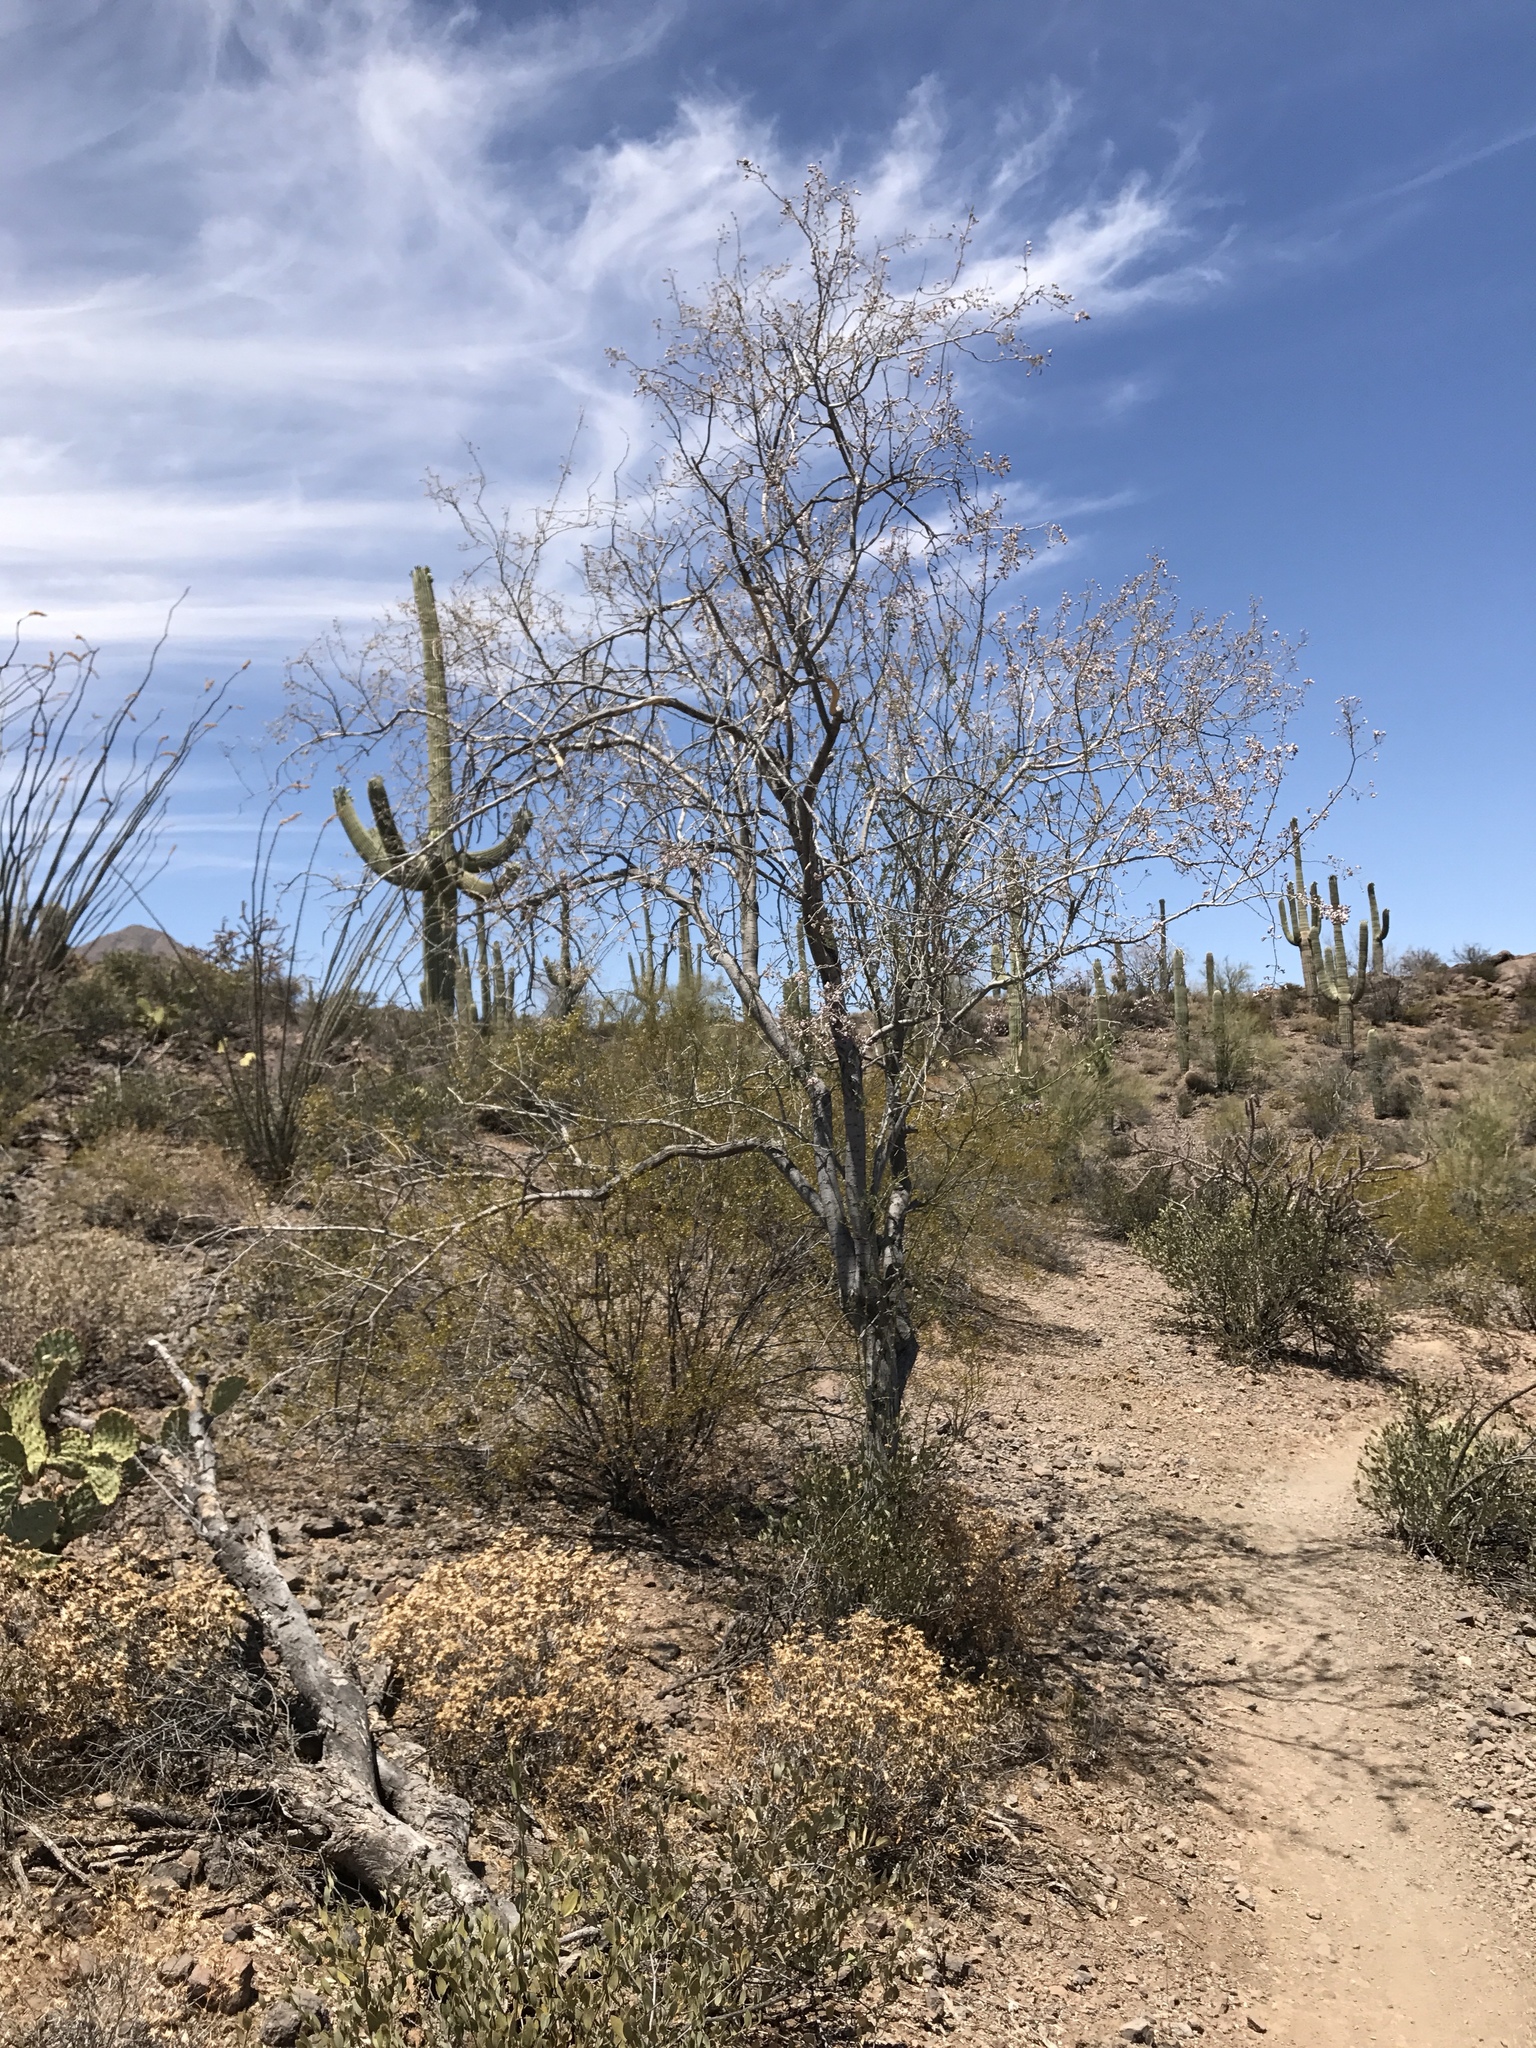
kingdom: Plantae
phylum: Tracheophyta
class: Magnoliopsida
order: Fabales
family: Fabaceae
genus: Olneya
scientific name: Olneya tesota
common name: Desert ironwood
